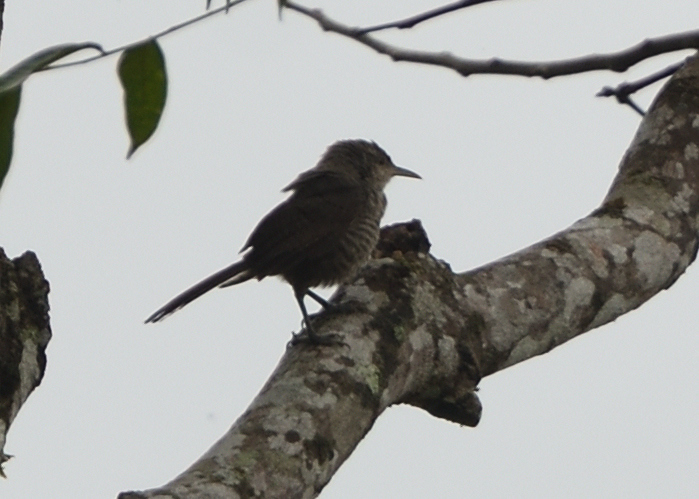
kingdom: Animalia
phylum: Chordata
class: Aves
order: Passeriformes
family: Troglodytidae
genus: Campylorhynchus
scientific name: Campylorhynchus turdinus
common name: Thrush-like wren
